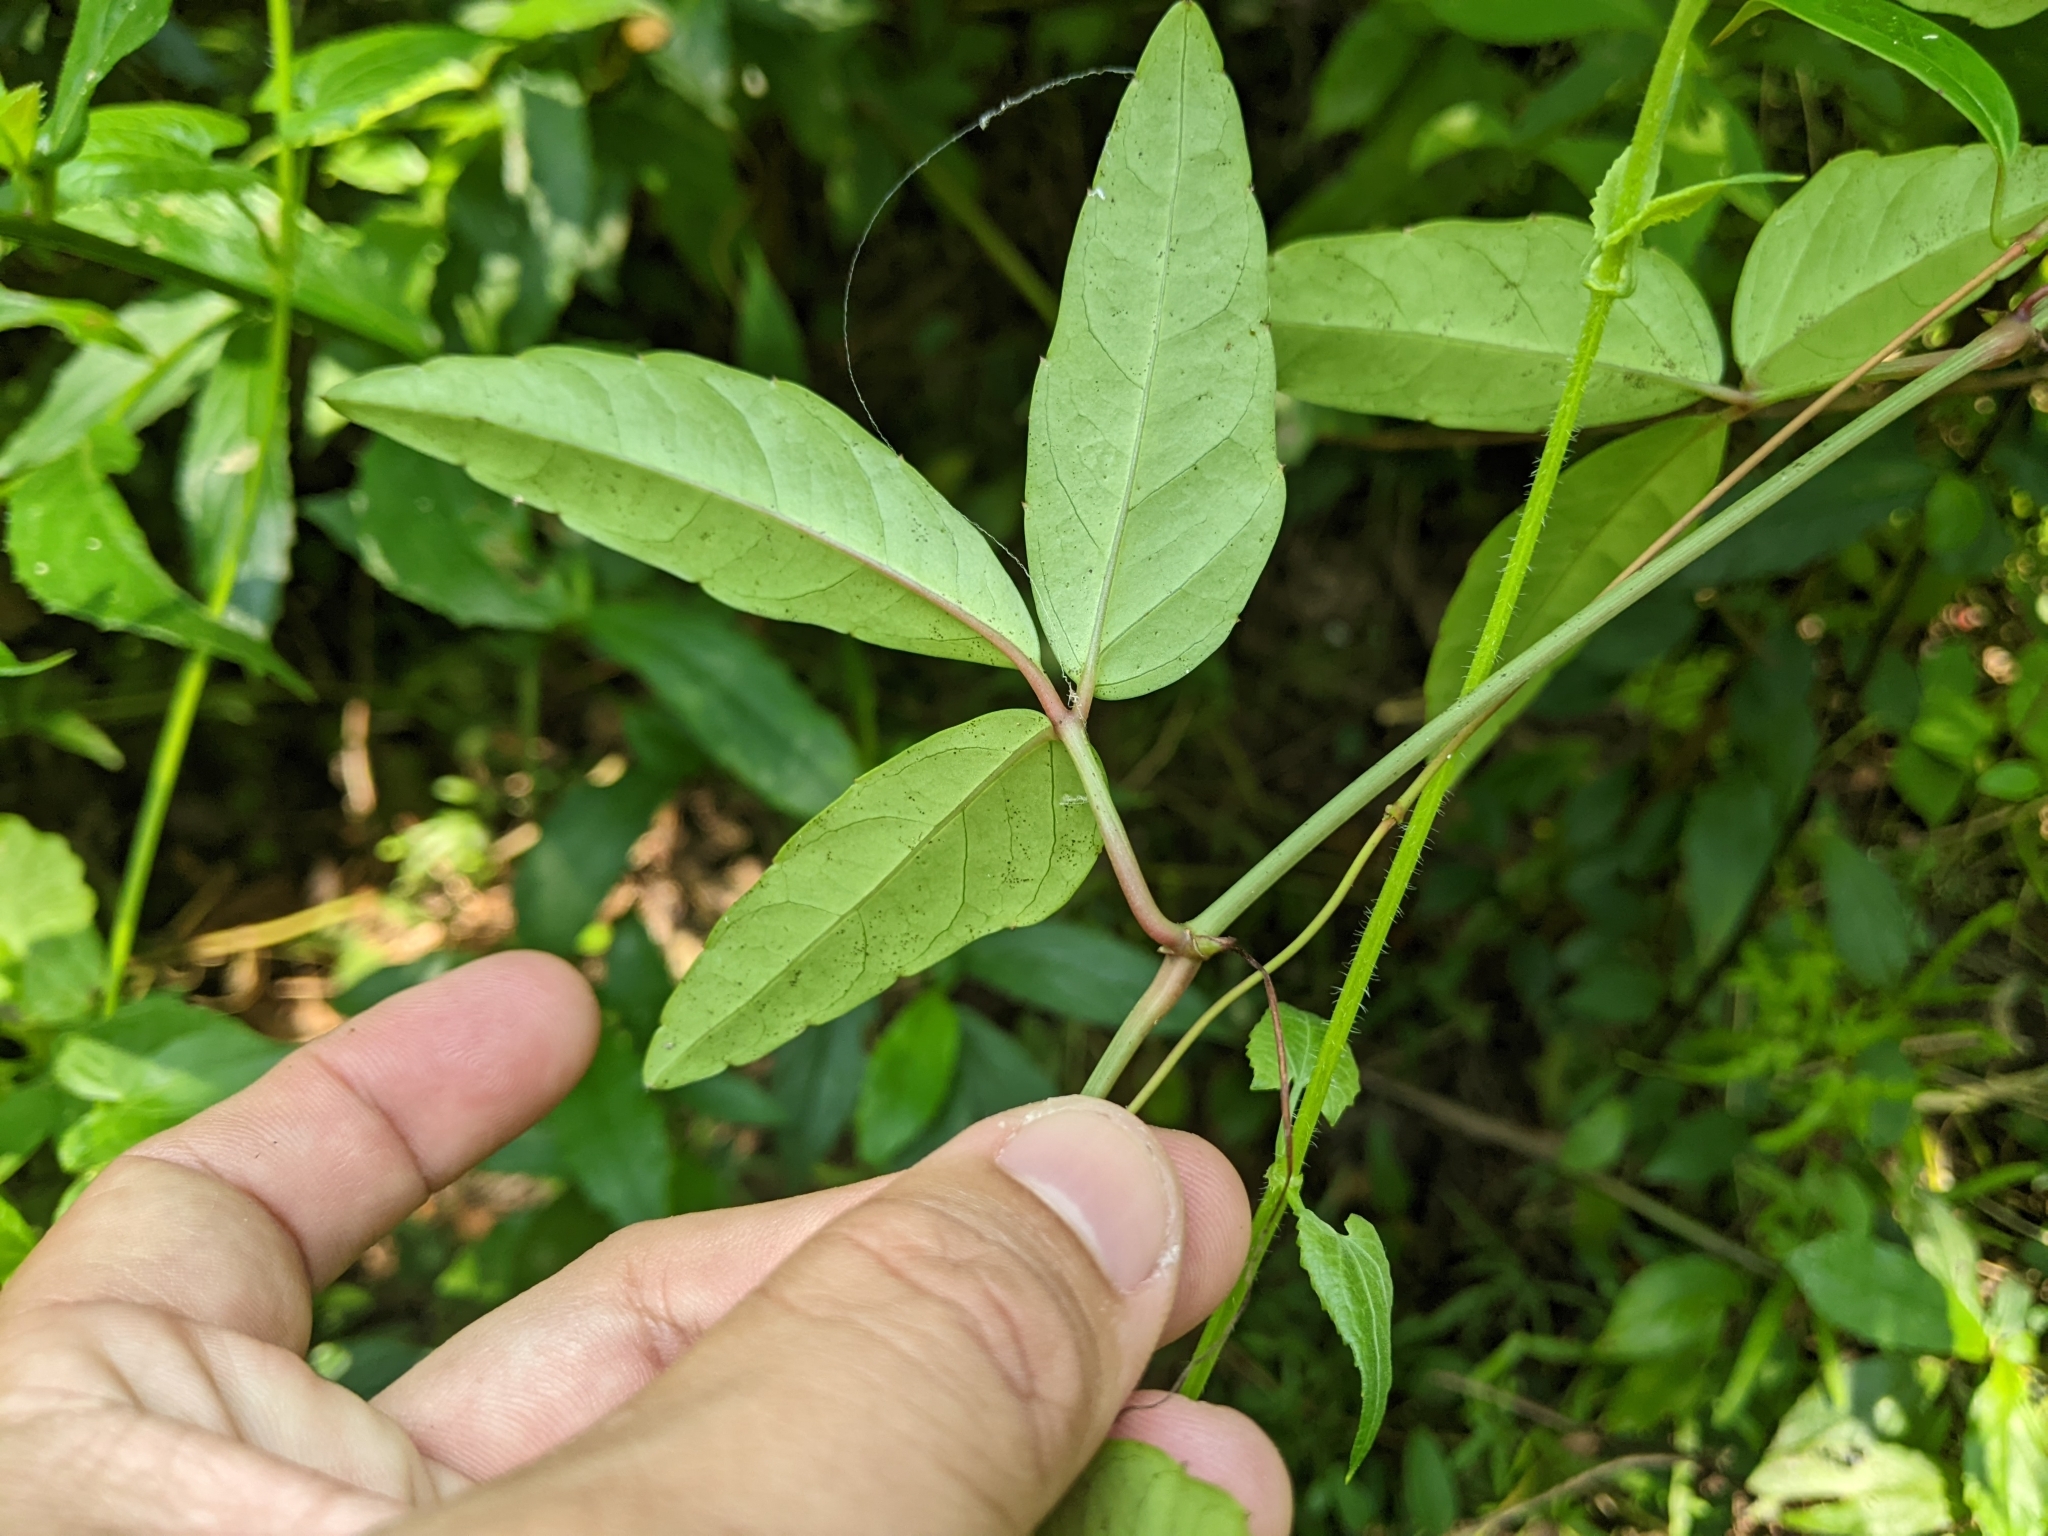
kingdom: Plantae
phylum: Tracheophyta
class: Magnoliopsida
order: Vitales
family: Vitaceae
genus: Tetrastigma
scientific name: Tetrastigma formosanum
